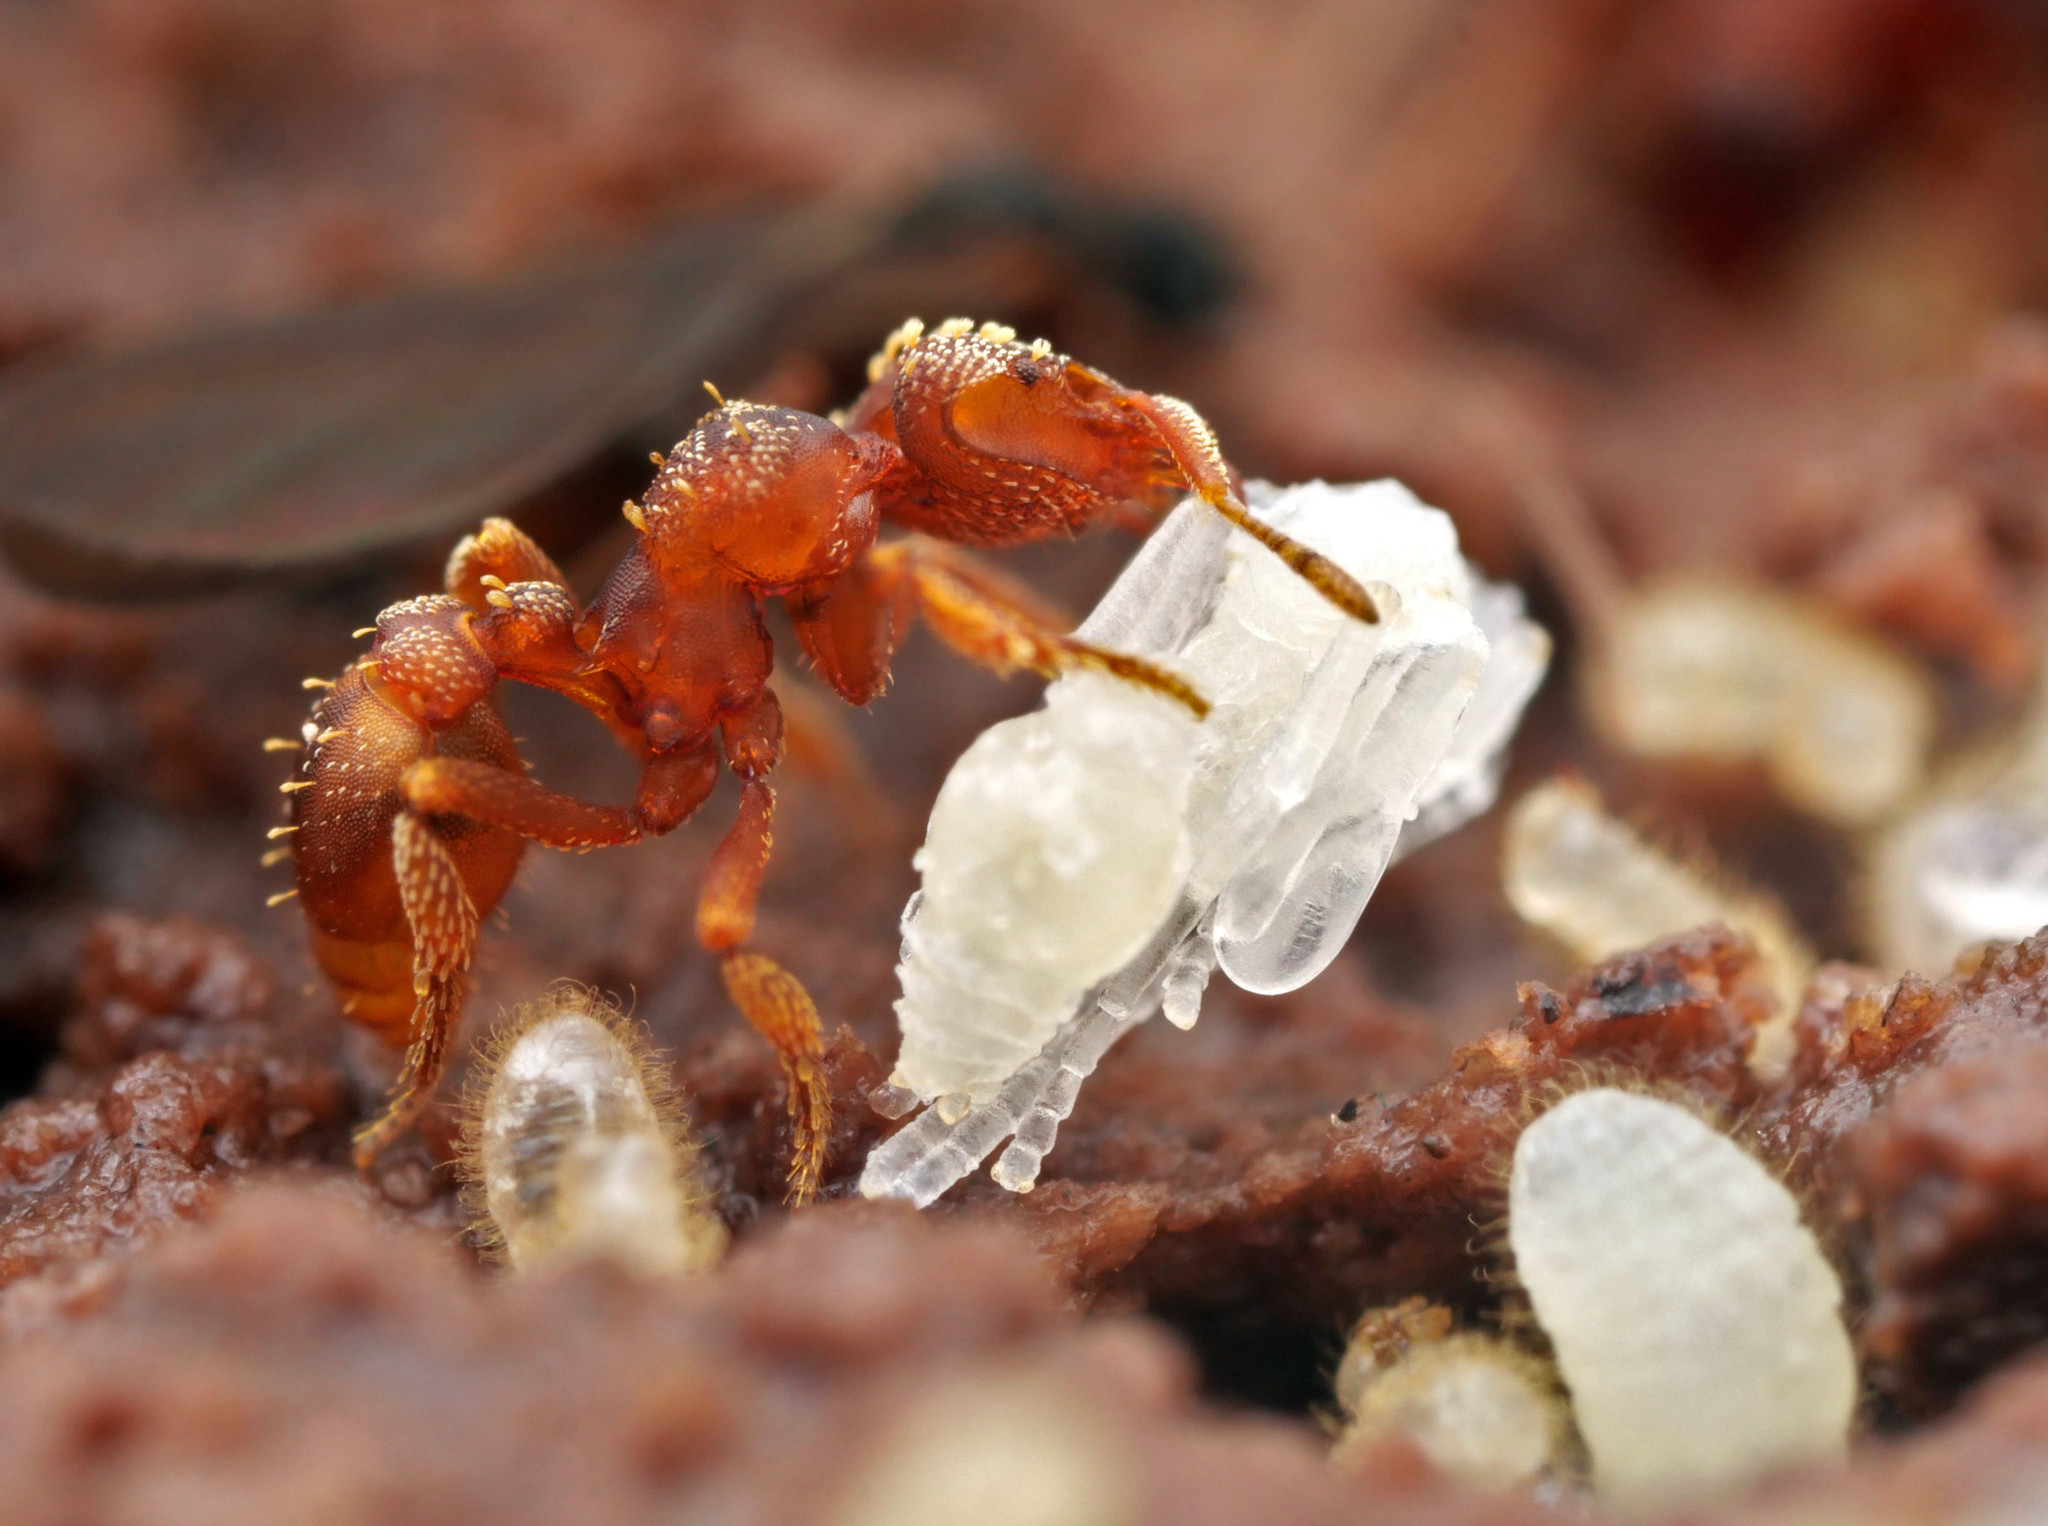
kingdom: Animalia
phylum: Arthropoda
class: Insecta
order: Hymenoptera
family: Formicidae
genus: Eurhopalothrix
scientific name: Eurhopalothrix gravis
